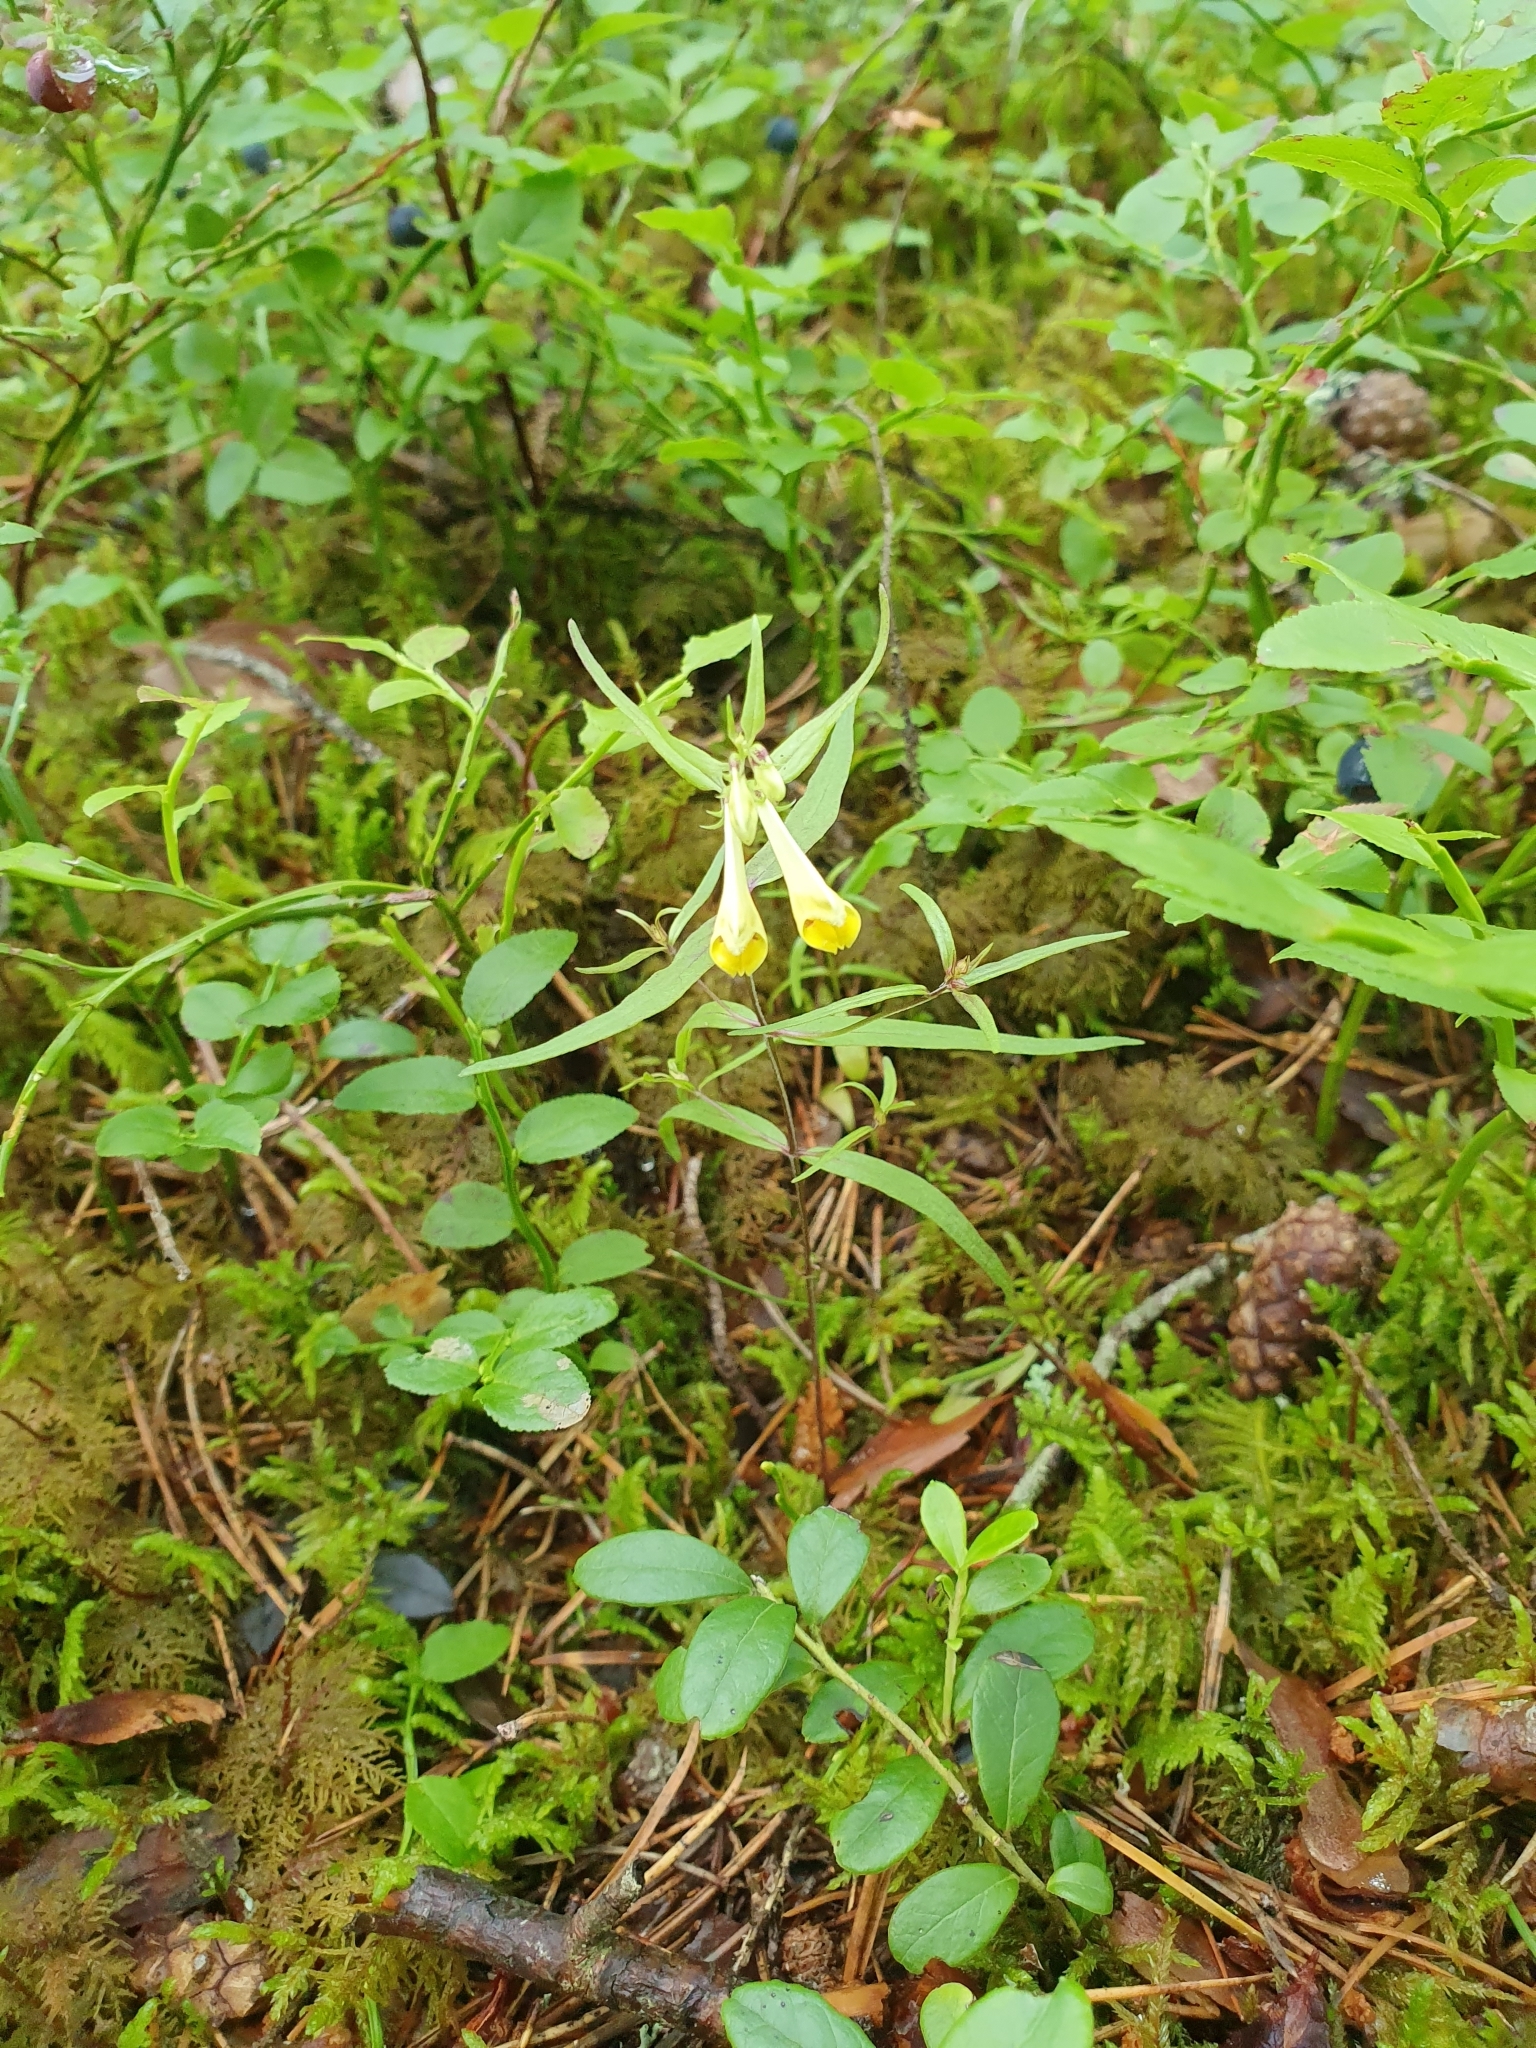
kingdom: Plantae
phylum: Tracheophyta
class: Magnoliopsida
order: Lamiales
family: Orobanchaceae
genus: Melampyrum
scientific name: Melampyrum pratense
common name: Common cow-wheat
